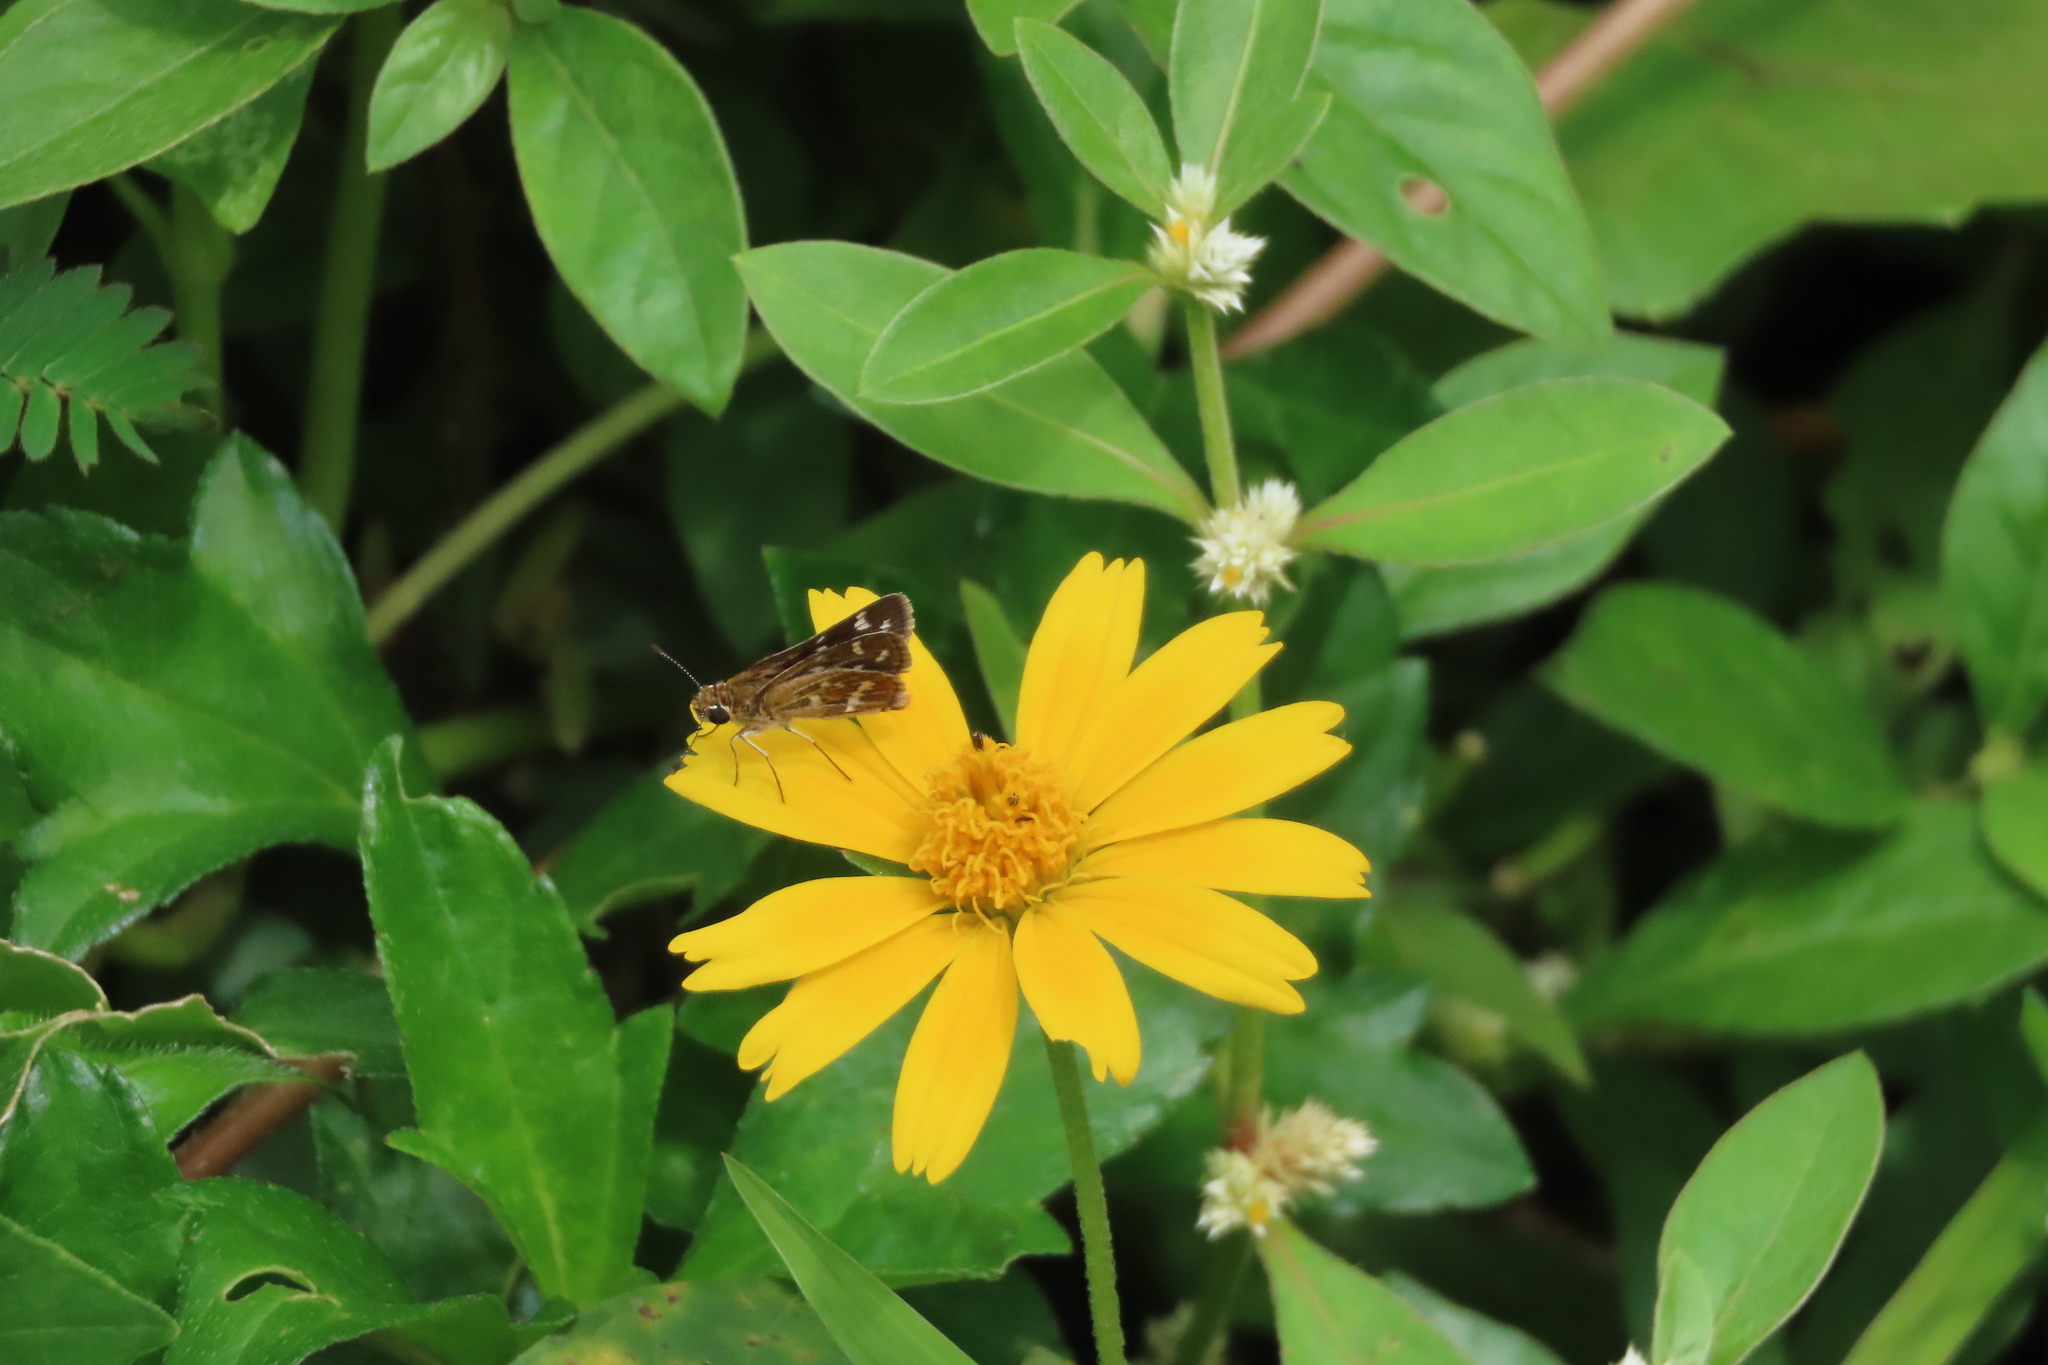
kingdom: Animalia
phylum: Arthropoda
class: Insecta
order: Lepidoptera
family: Hesperiidae
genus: Taractrocera
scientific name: Taractrocera maevius
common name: Common grass-dart
